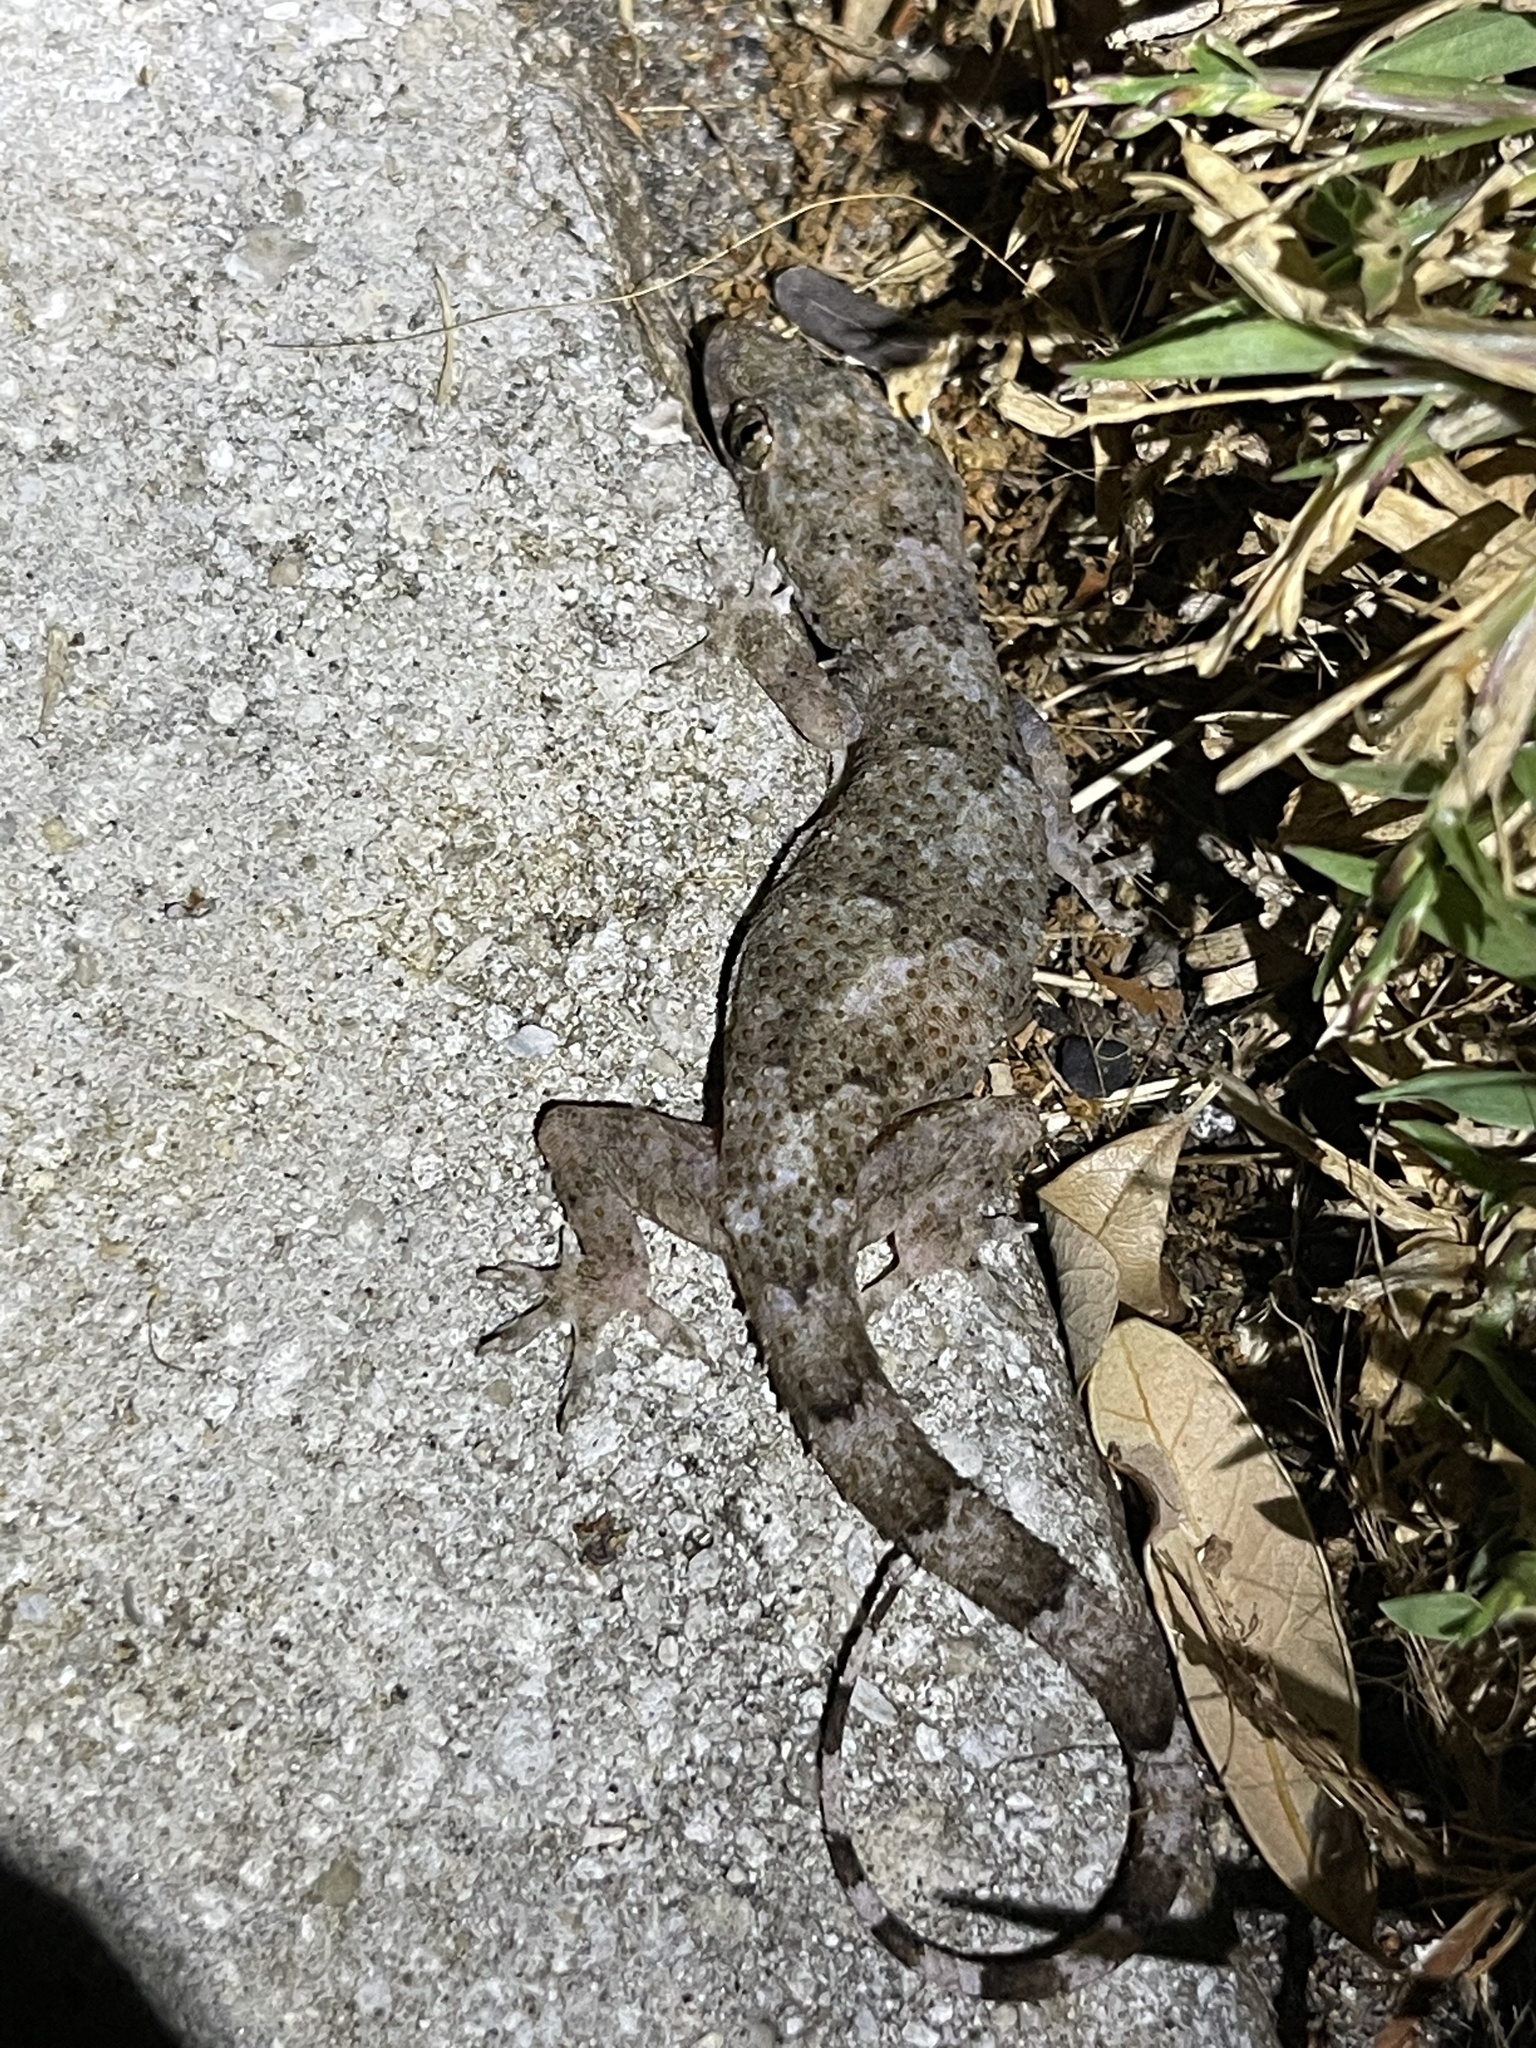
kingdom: Animalia
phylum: Chordata
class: Squamata
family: Gekkonidae
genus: Hemidactylus
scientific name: Hemidactylus mabouia
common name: House gecko
